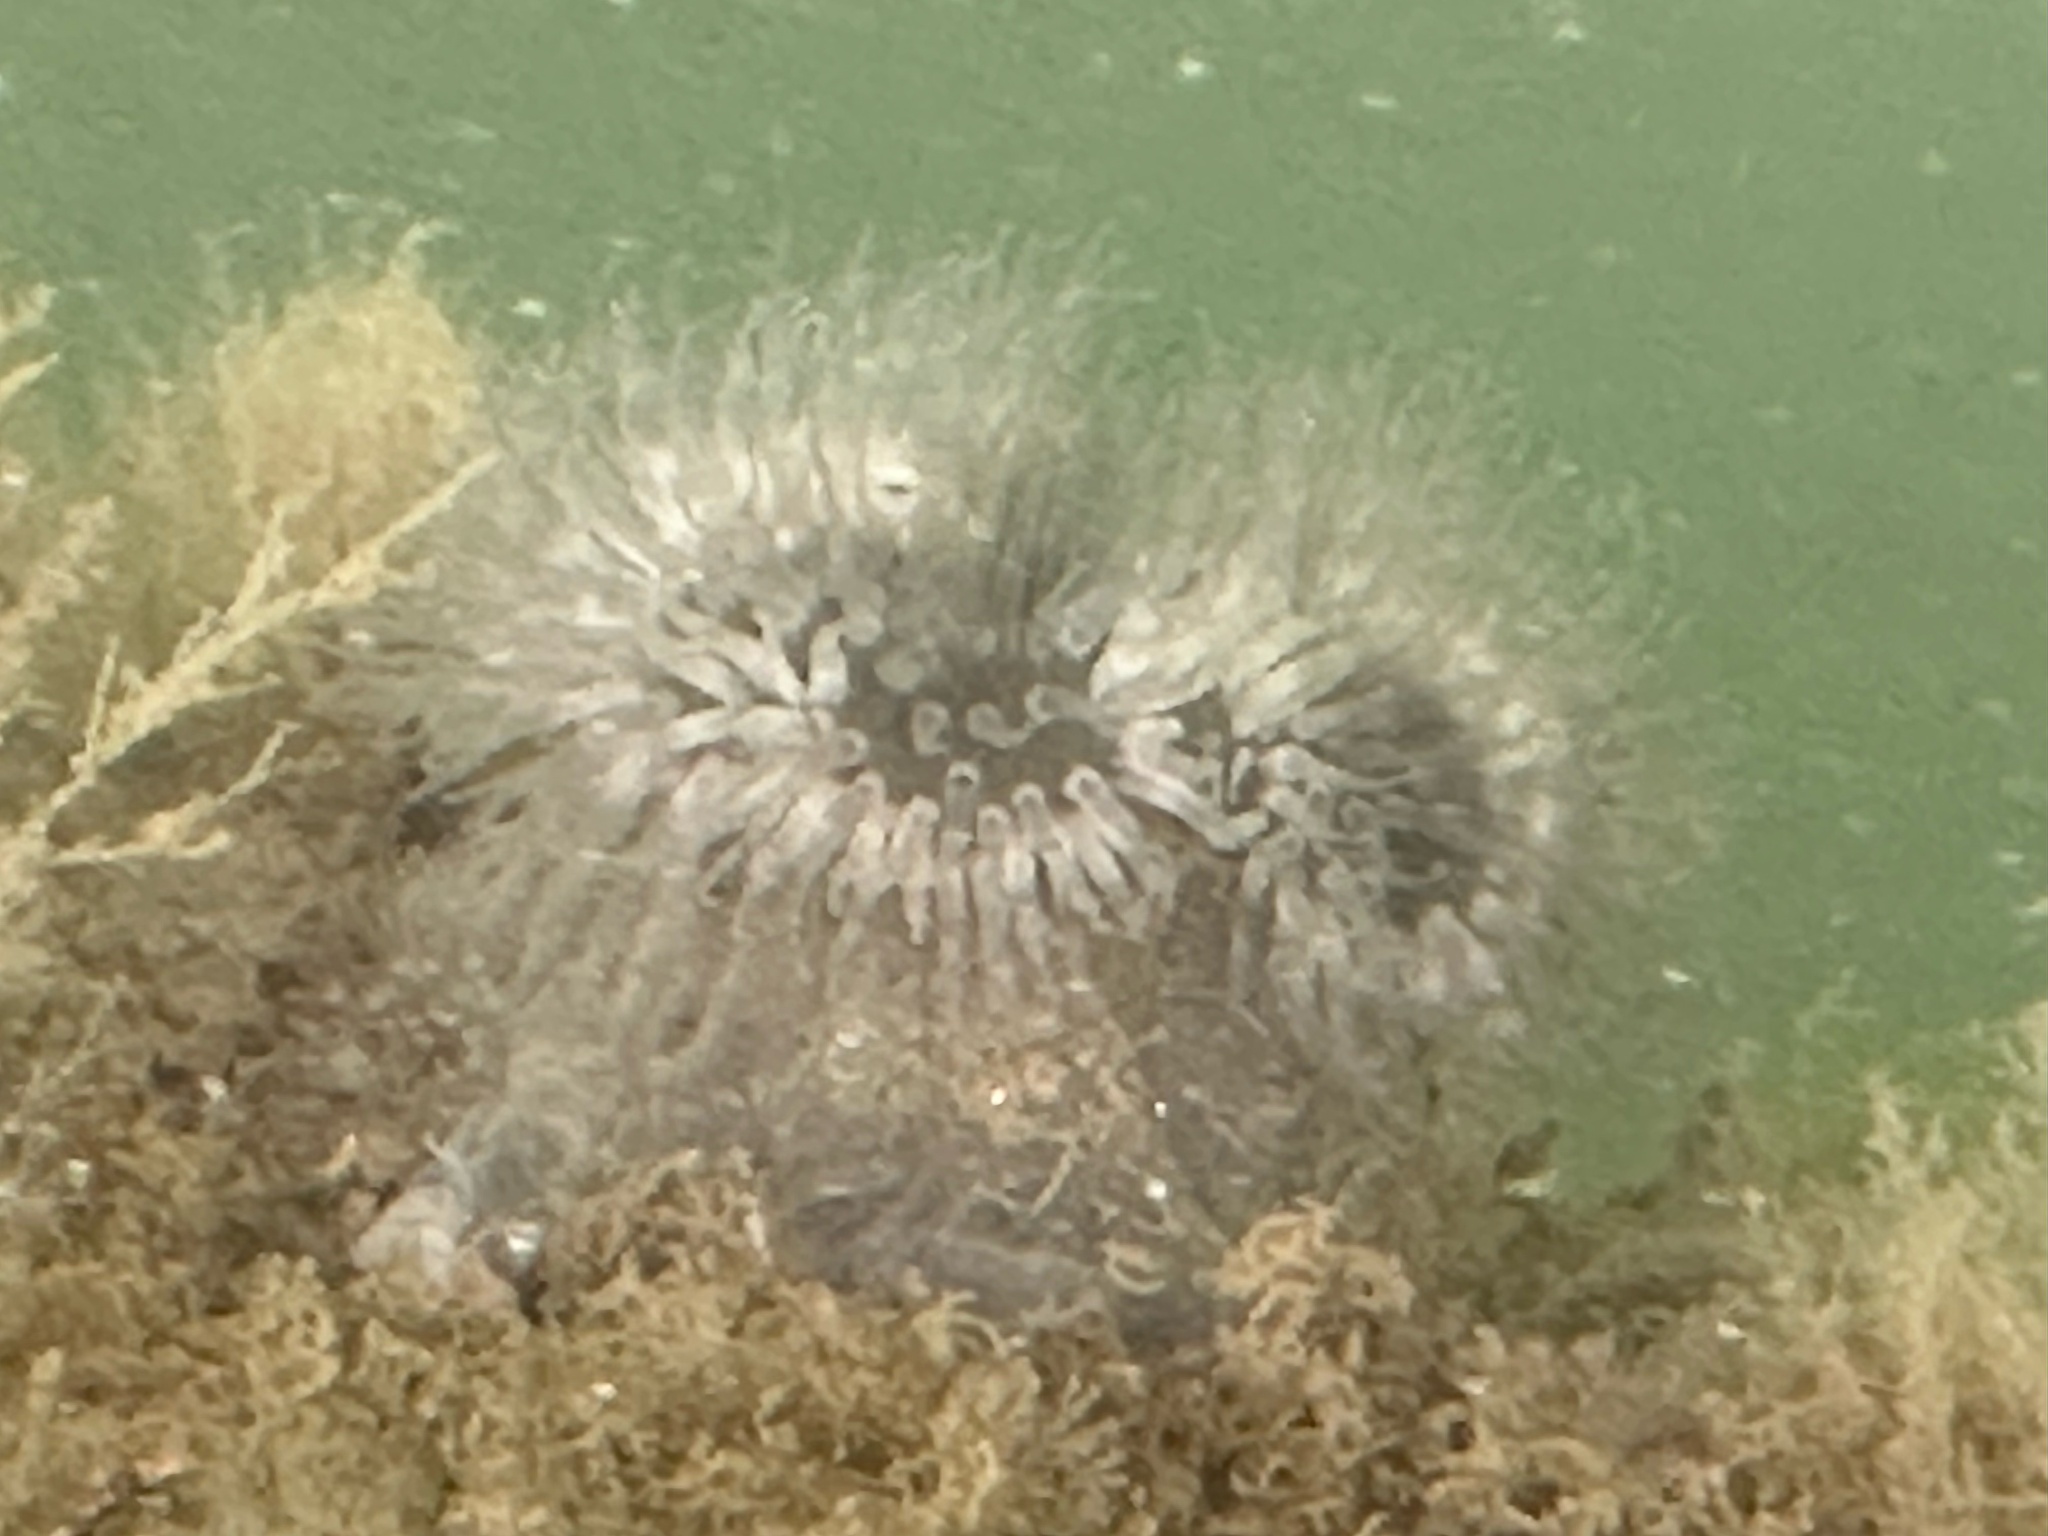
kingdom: Animalia
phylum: Cnidaria
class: Anthozoa
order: Actiniaria
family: Metridiidae
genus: Metridium
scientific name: Metridium senile
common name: Clonal plumose anemone
